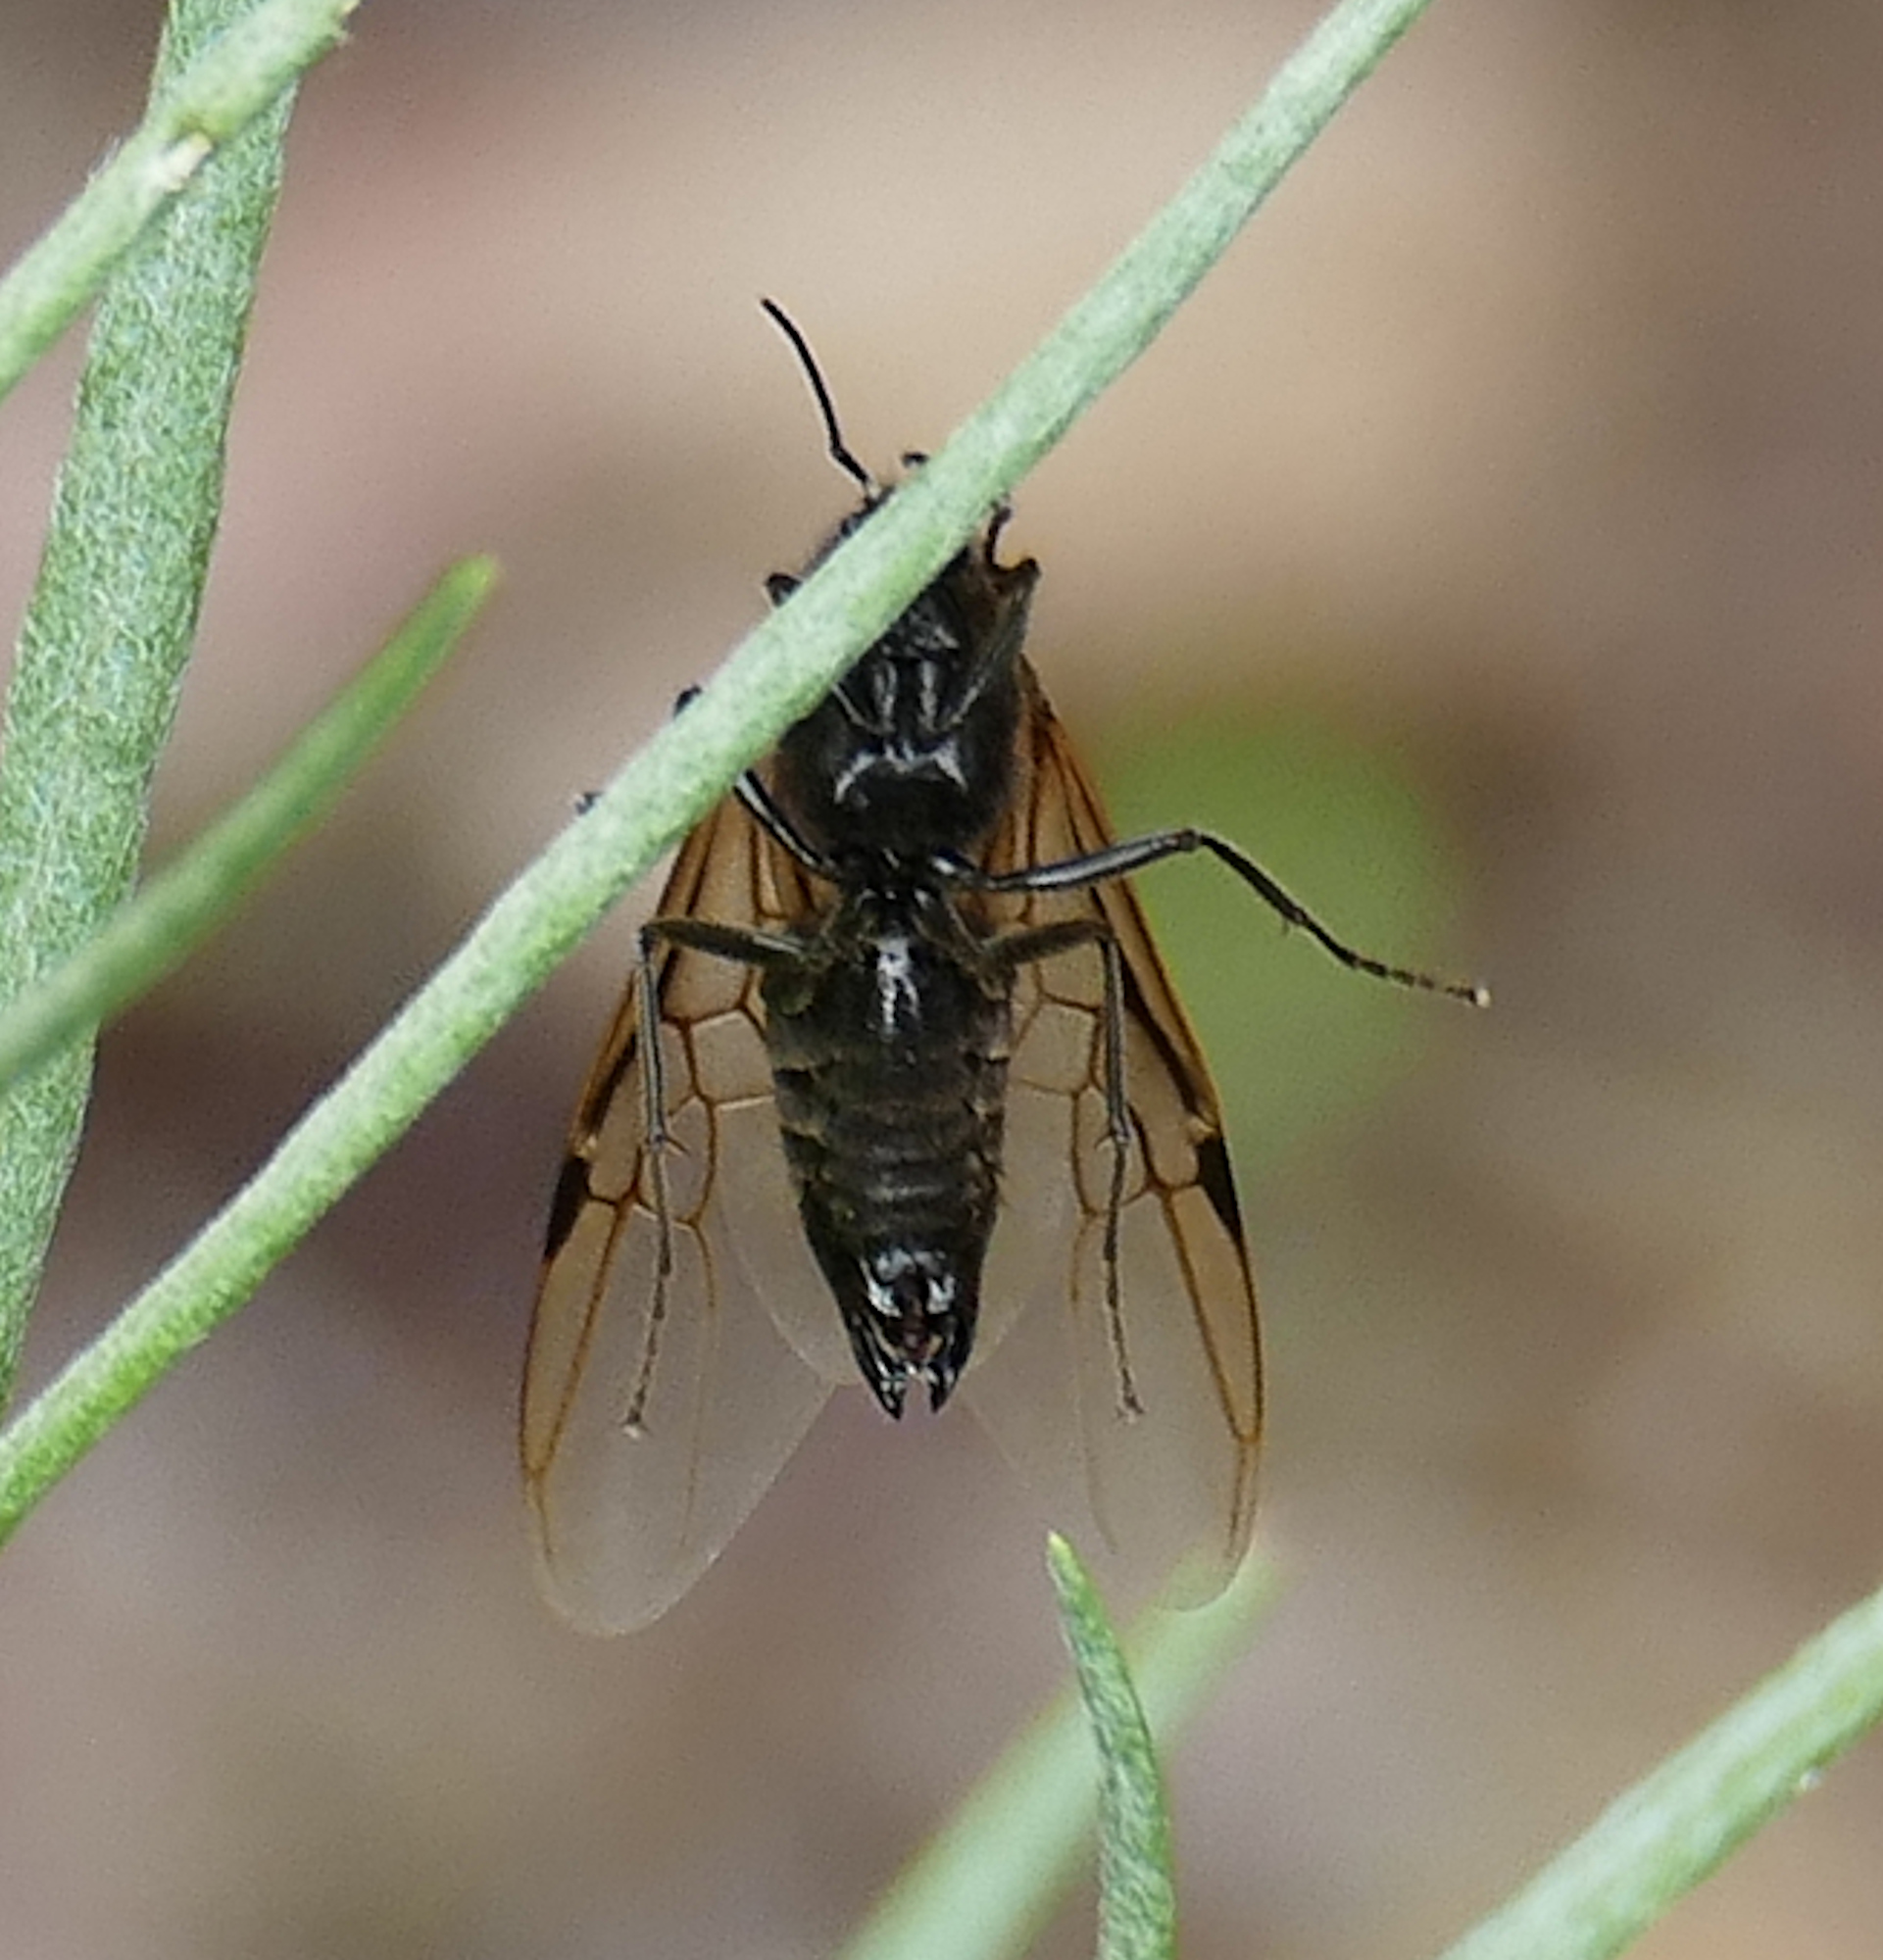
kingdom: Animalia
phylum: Arthropoda
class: Insecta
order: Hymenoptera
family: Formicidae
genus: Liometopum
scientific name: Liometopum apiculatum
